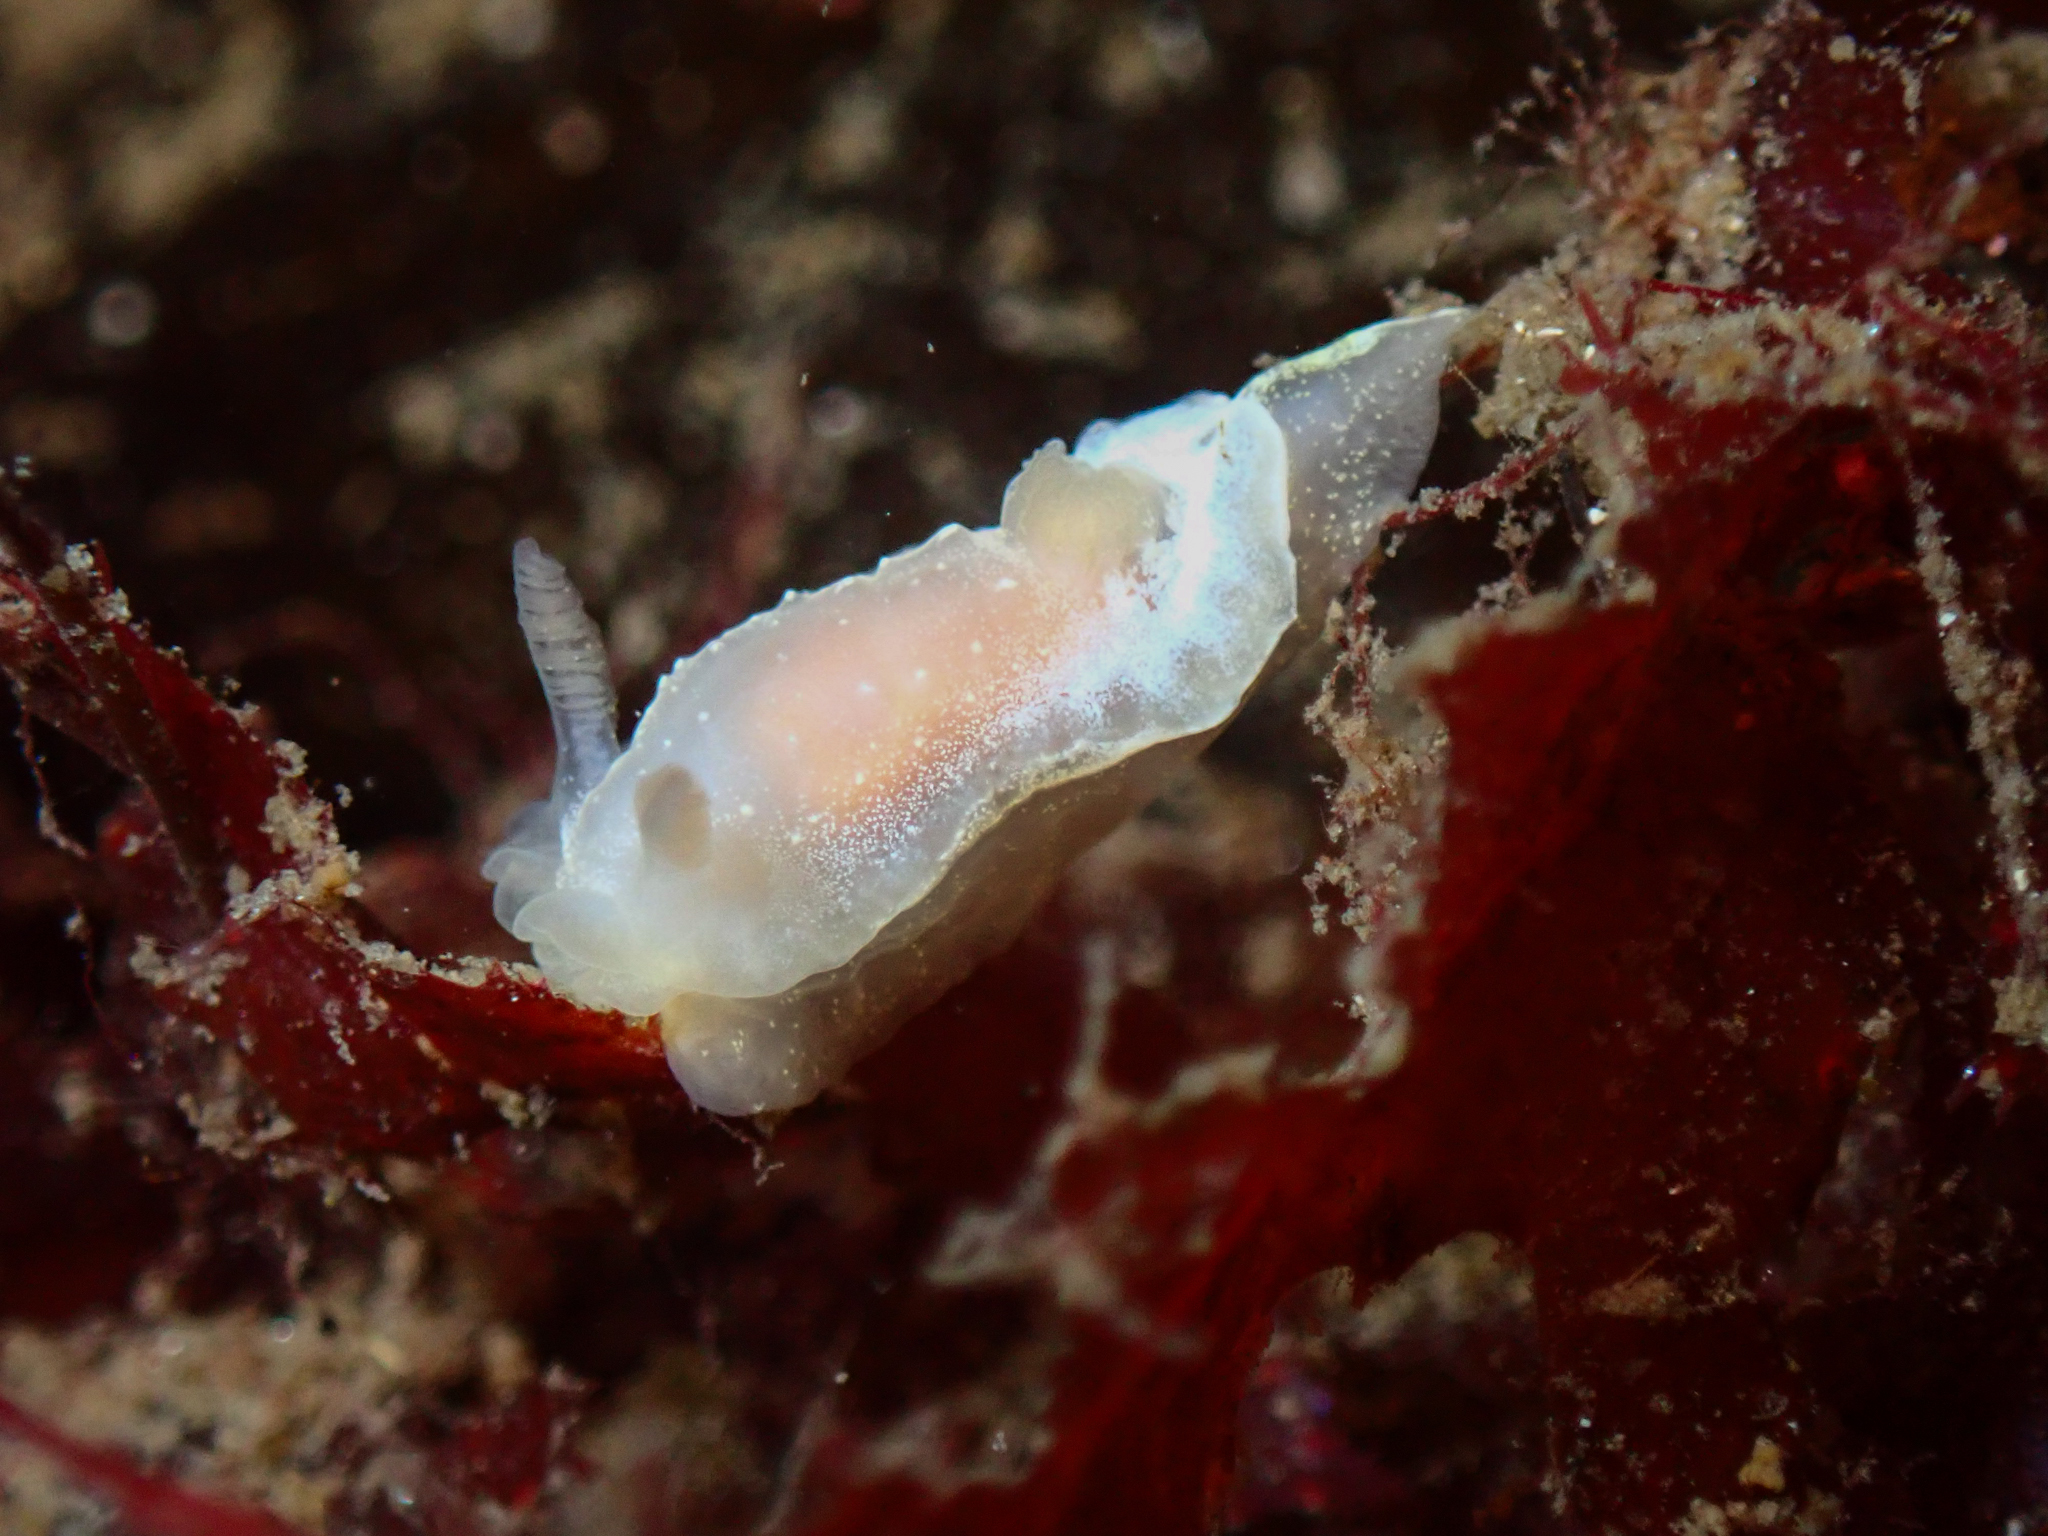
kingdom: Animalia
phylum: Mollusca
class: Gastropoda
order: Nudibranchia
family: Goniodorididae
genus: Okenia
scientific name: Okenia
